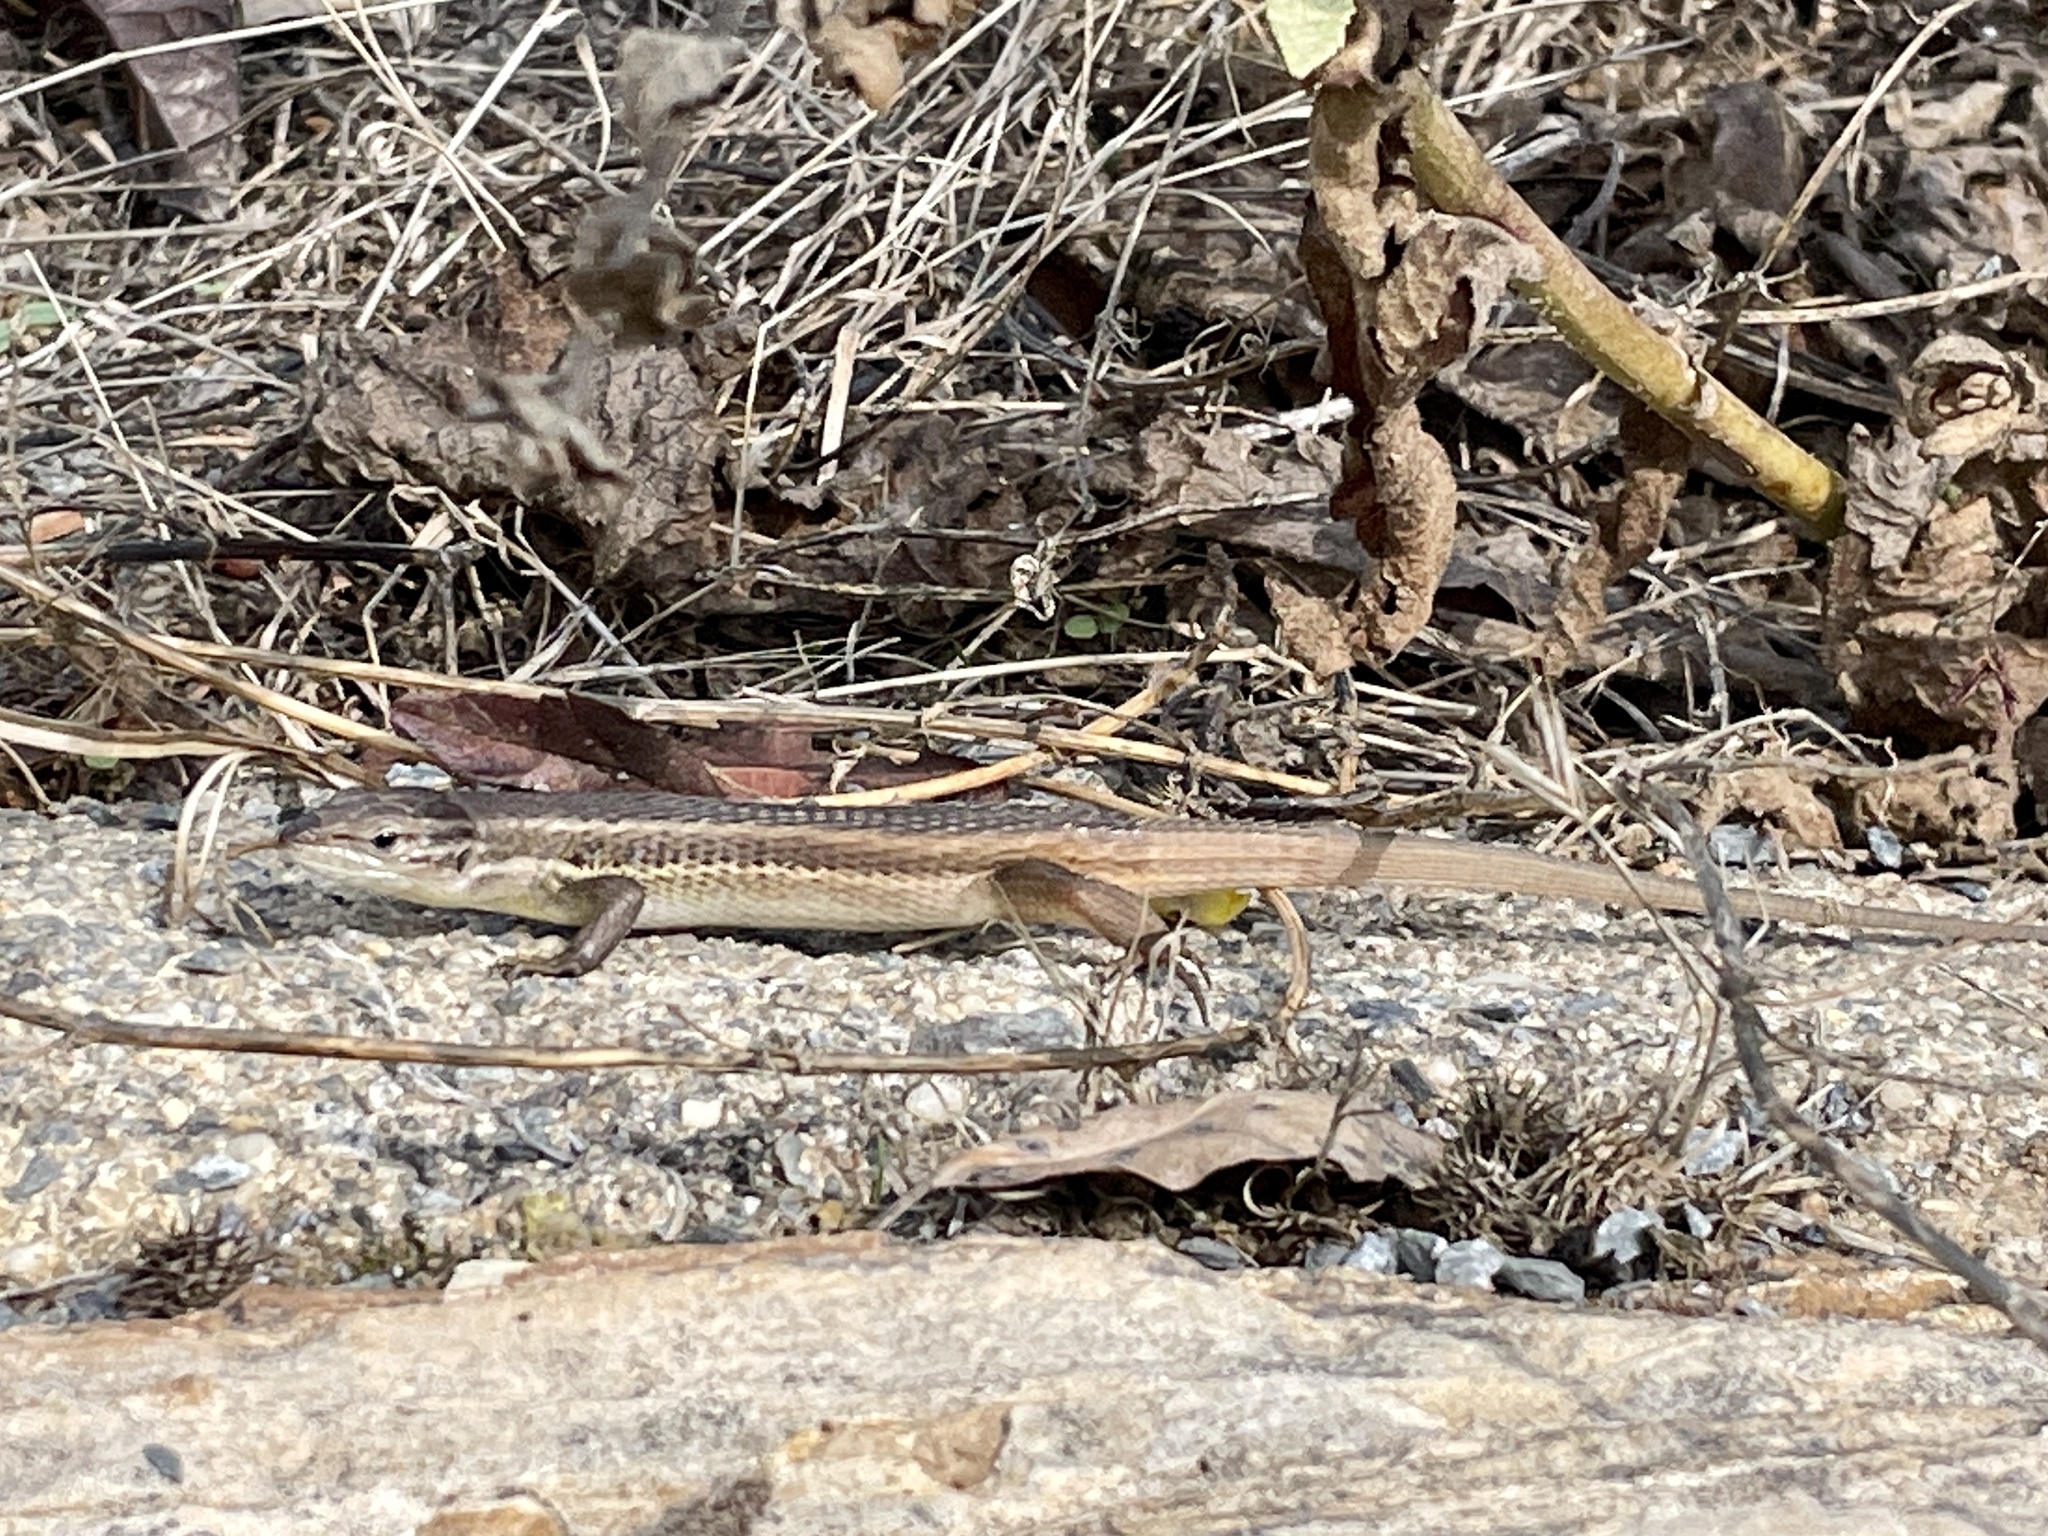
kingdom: Animalia
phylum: Chordata
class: Squamata
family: Lacertidae
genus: Psammodromus
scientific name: Psammodromus algirus
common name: Algerian psammodromus
